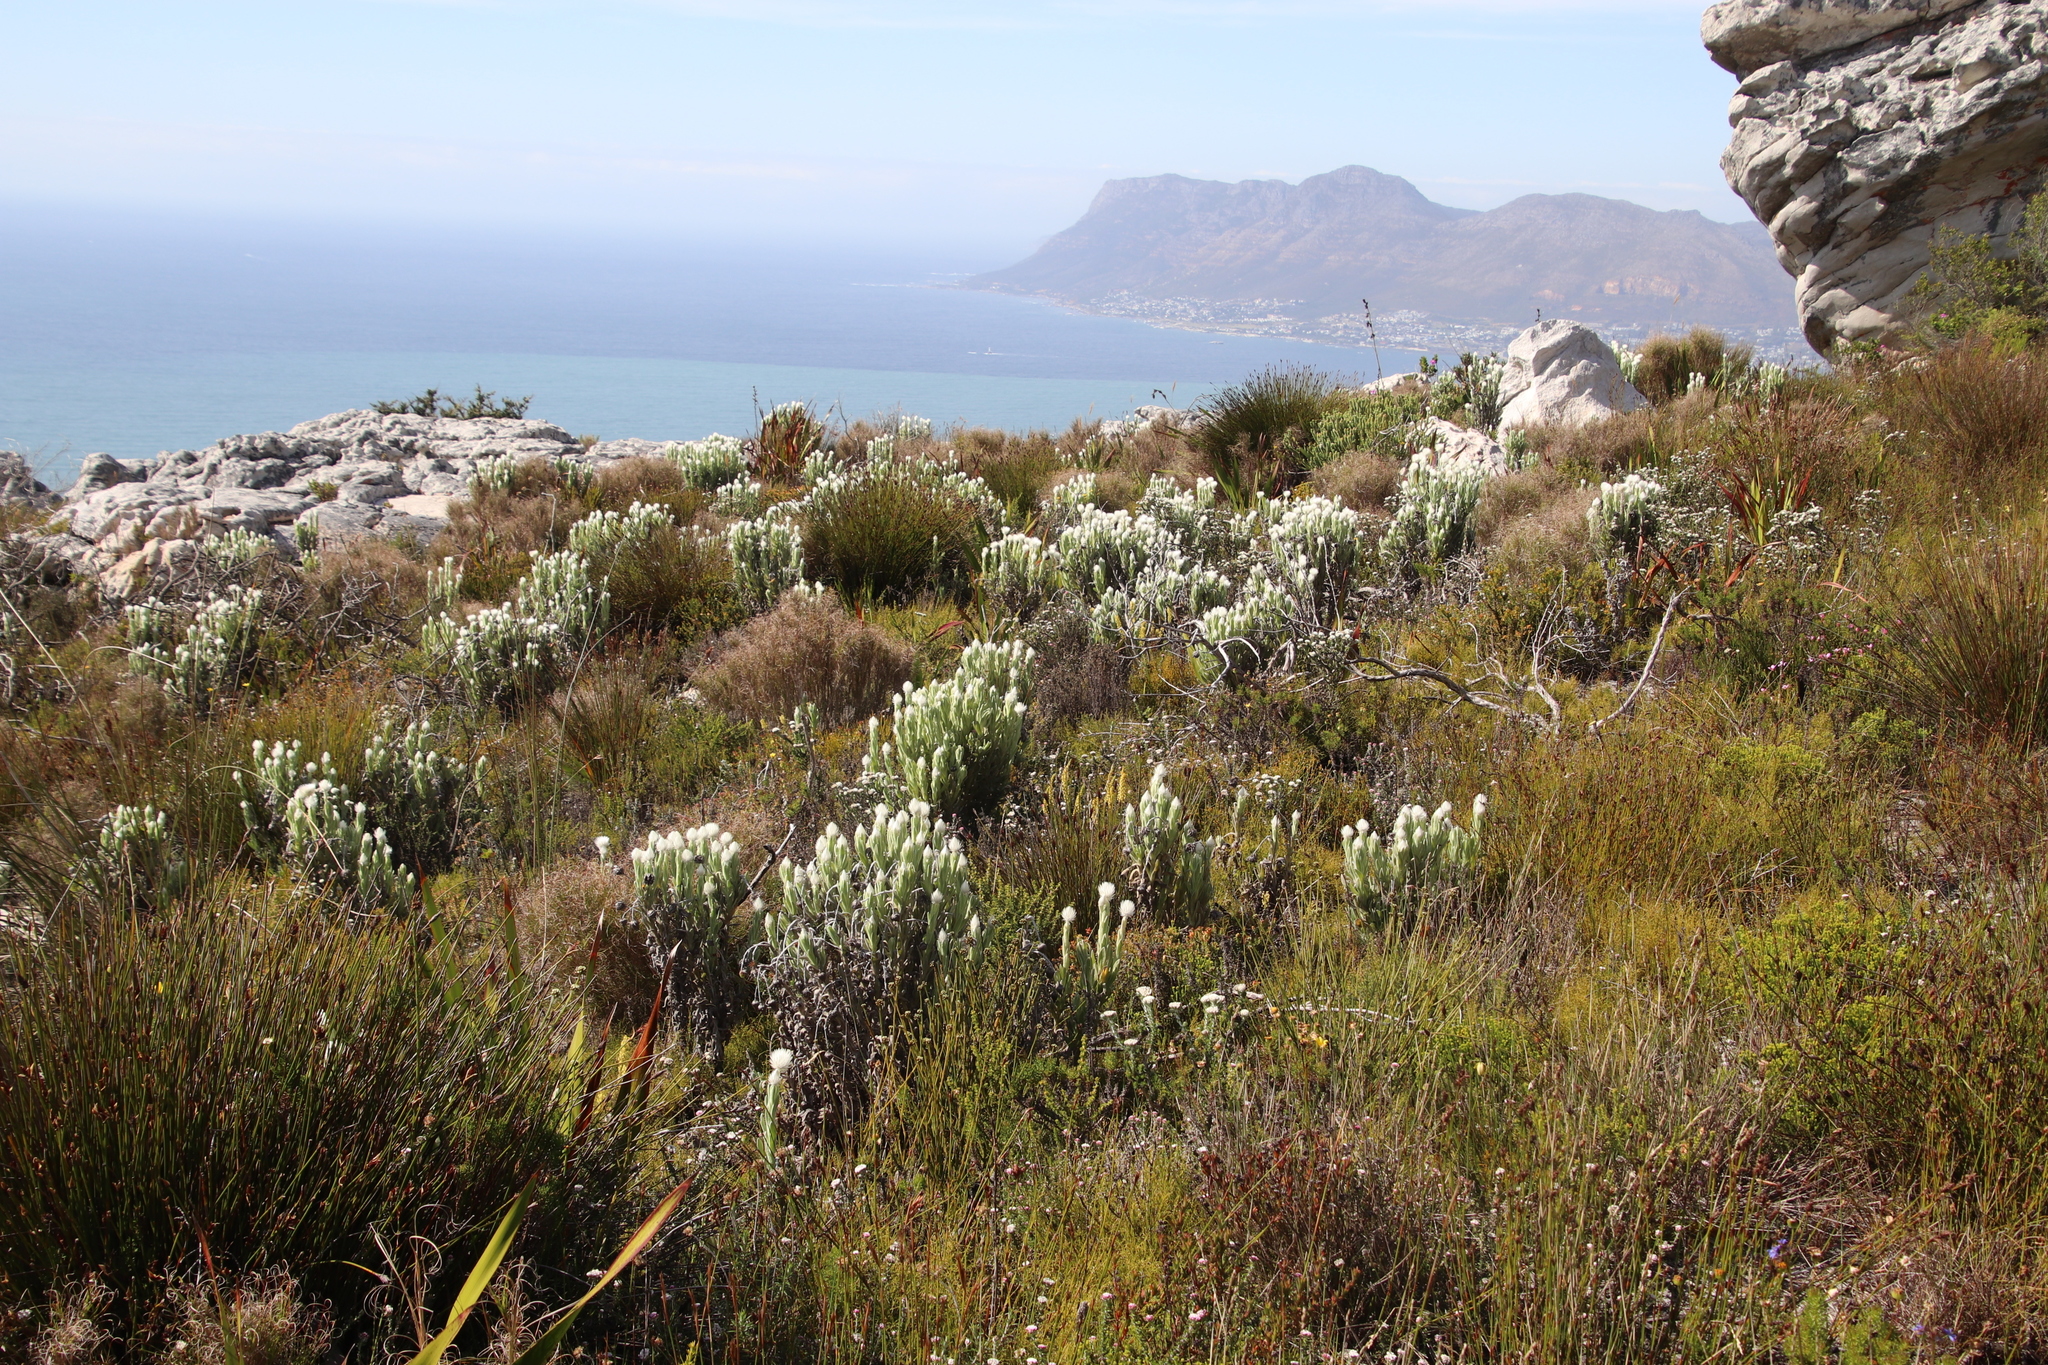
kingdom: Plantae
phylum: Tracheophyta
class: Magnoliopsida
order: Asterales
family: Asteraceae
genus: Syncarpha
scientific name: Syncarpha vestita
